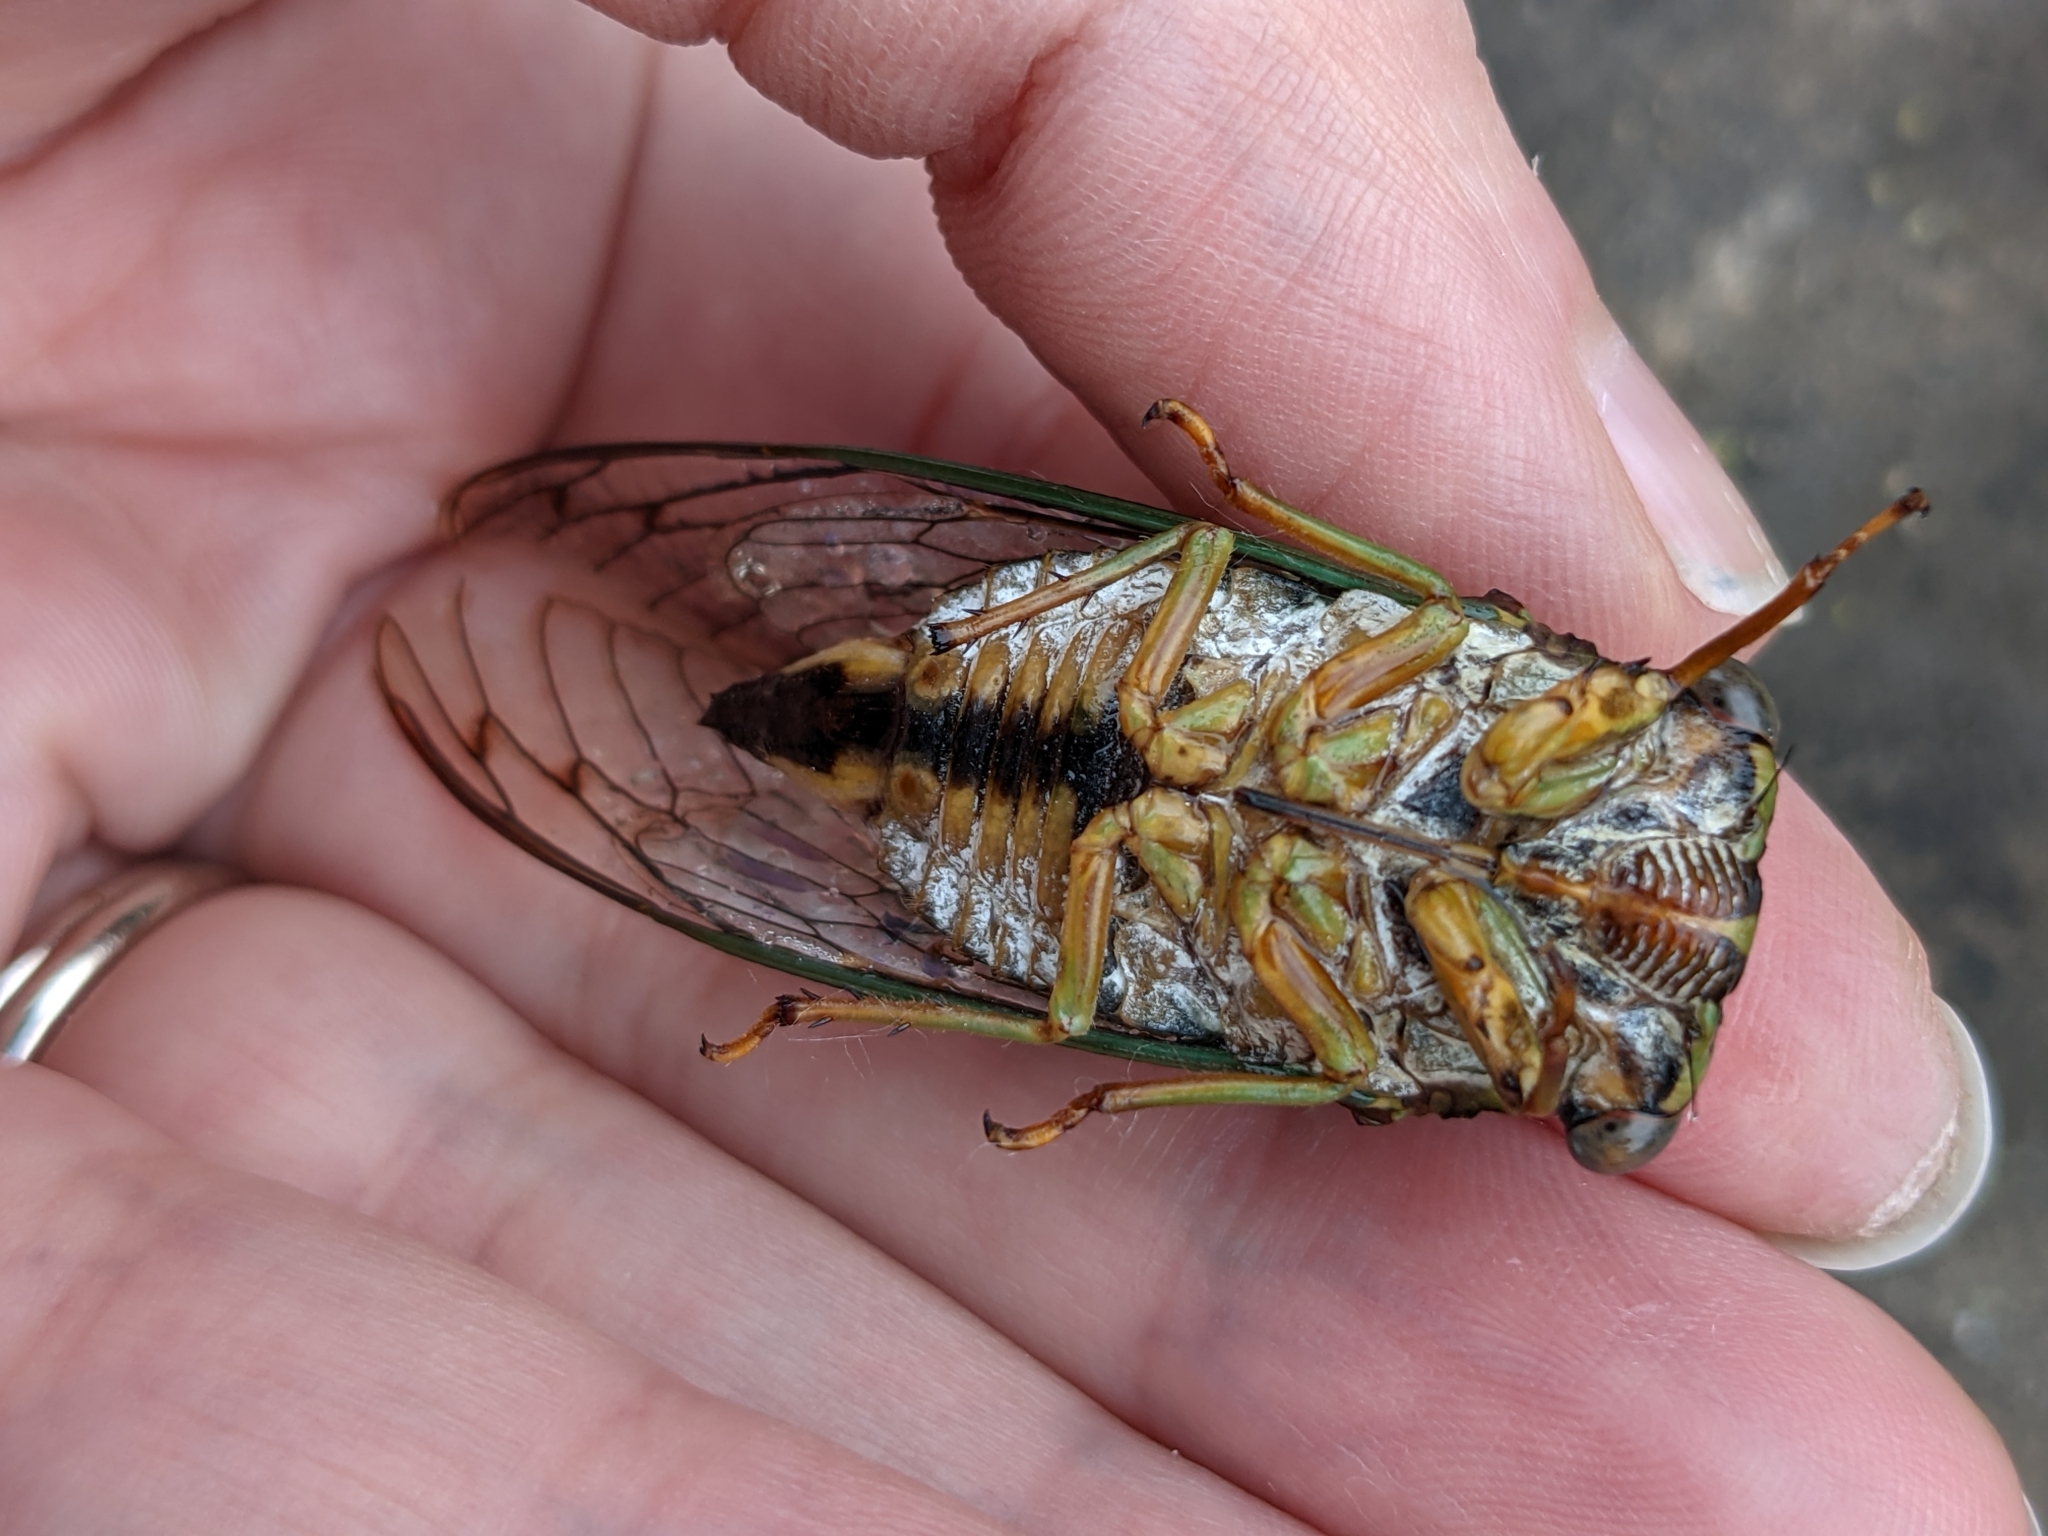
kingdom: Animalia
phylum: Arthropoda
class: Insecta
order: Hemiptera
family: Cicadidae
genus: Neotibicen
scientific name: Neotibicen pruinosus
